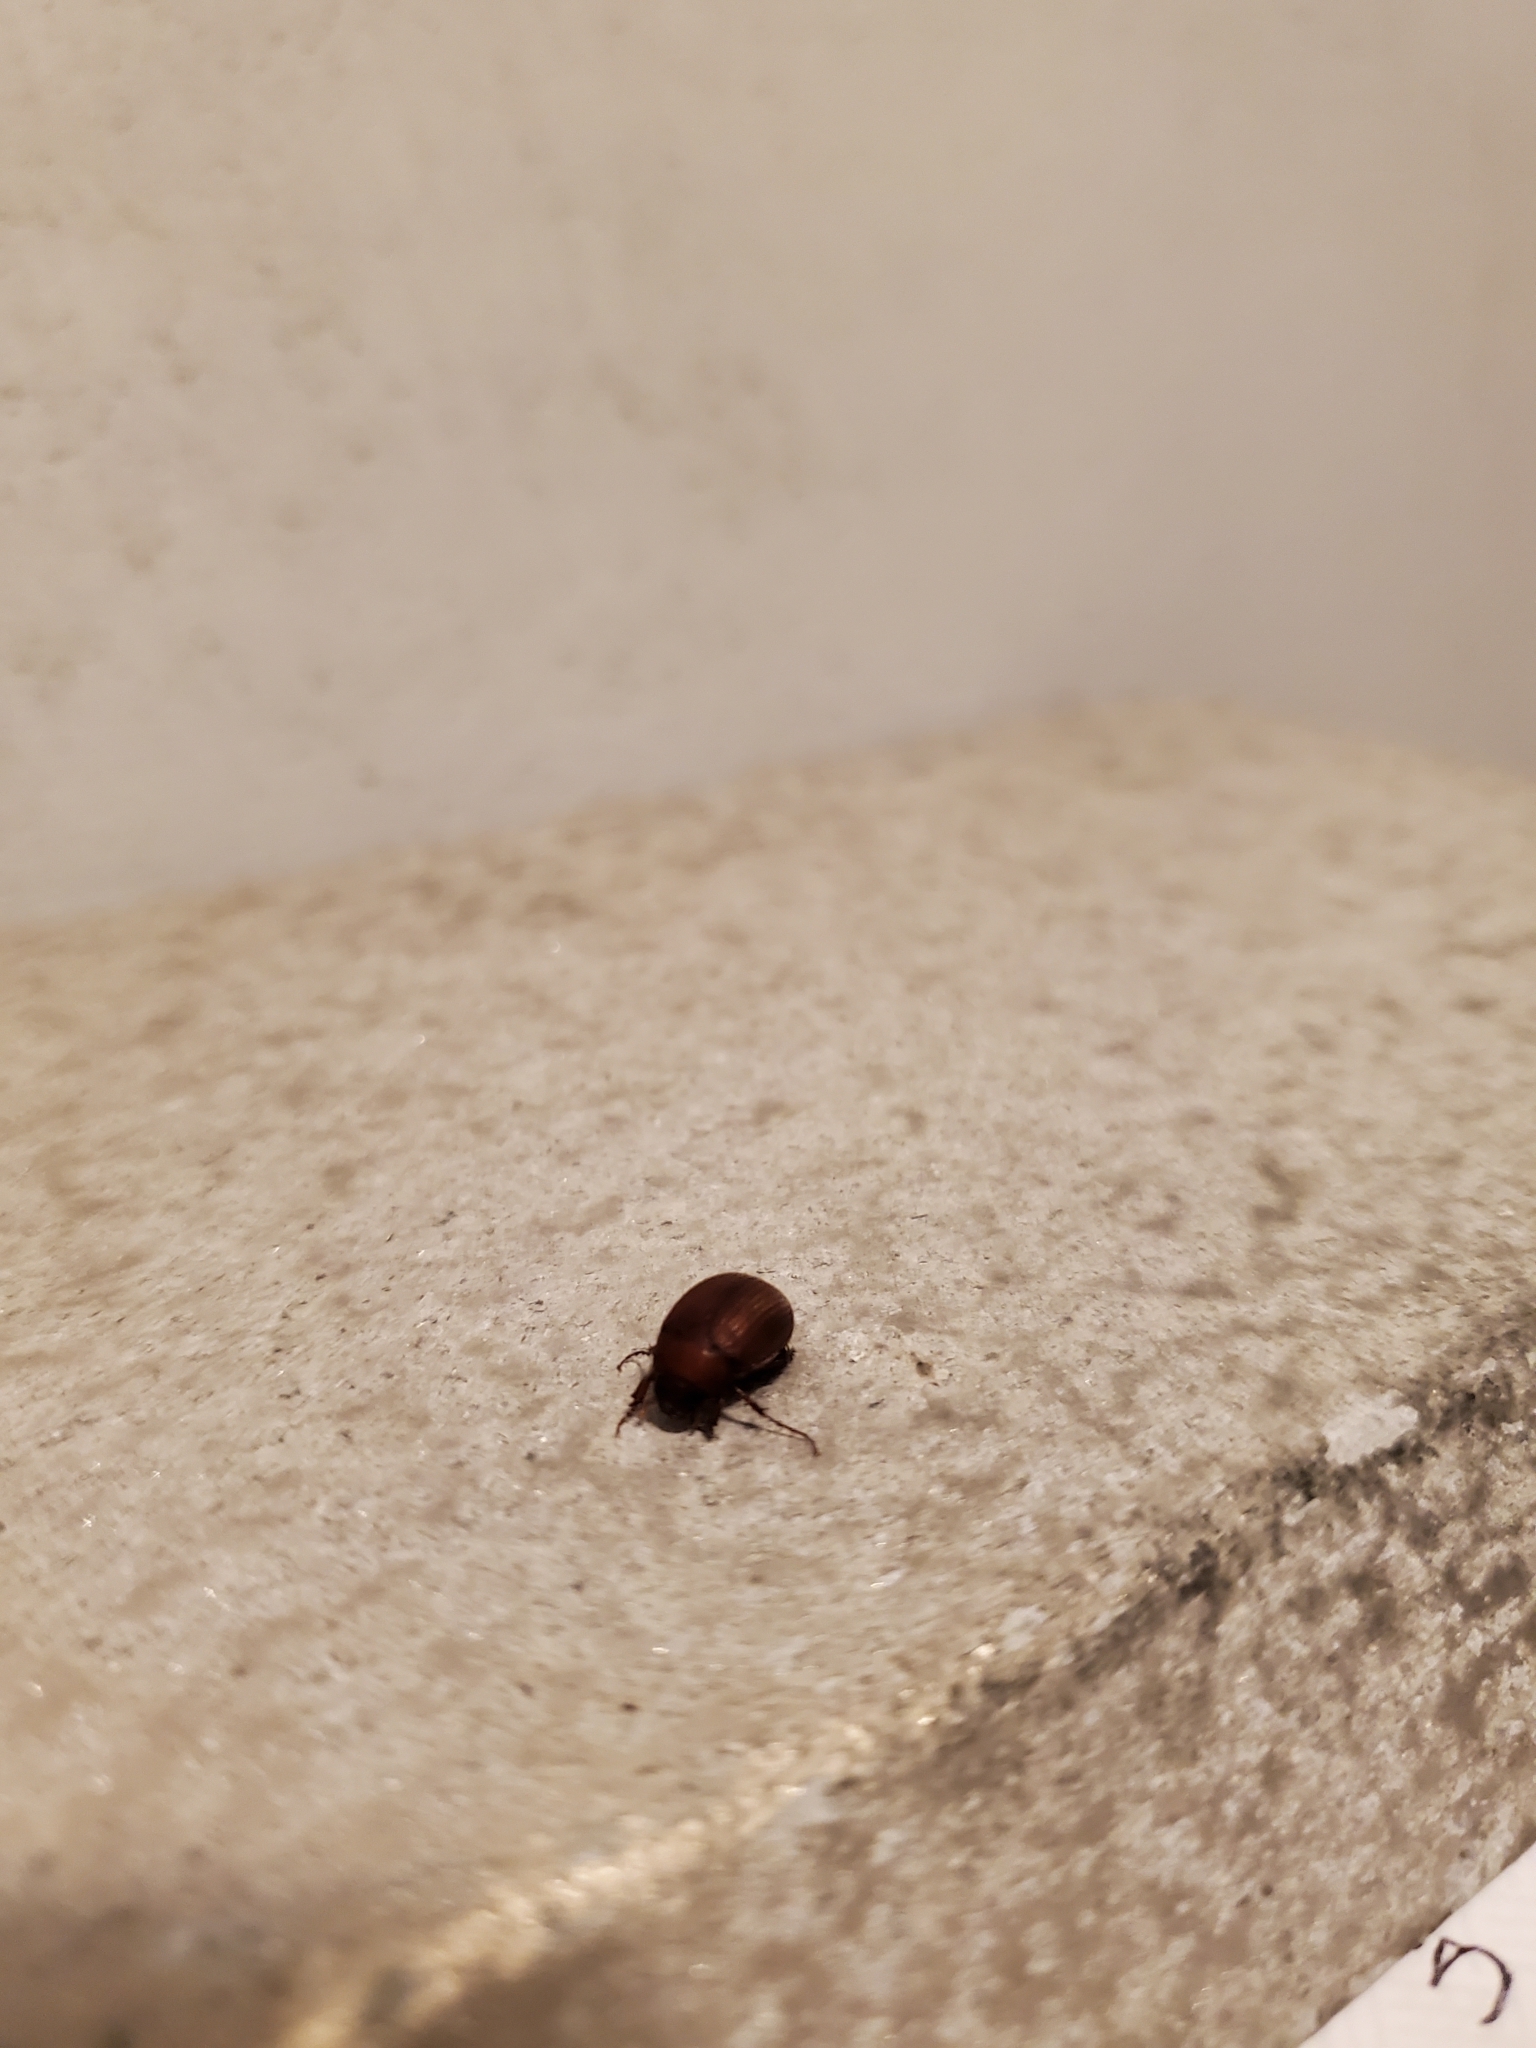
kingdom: Animalia
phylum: Arthropoda
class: Insecta
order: Coleoptera
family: Scarabaeidae
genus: Maladera
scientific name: Maladera formosae
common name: Asiatic garden beetle
